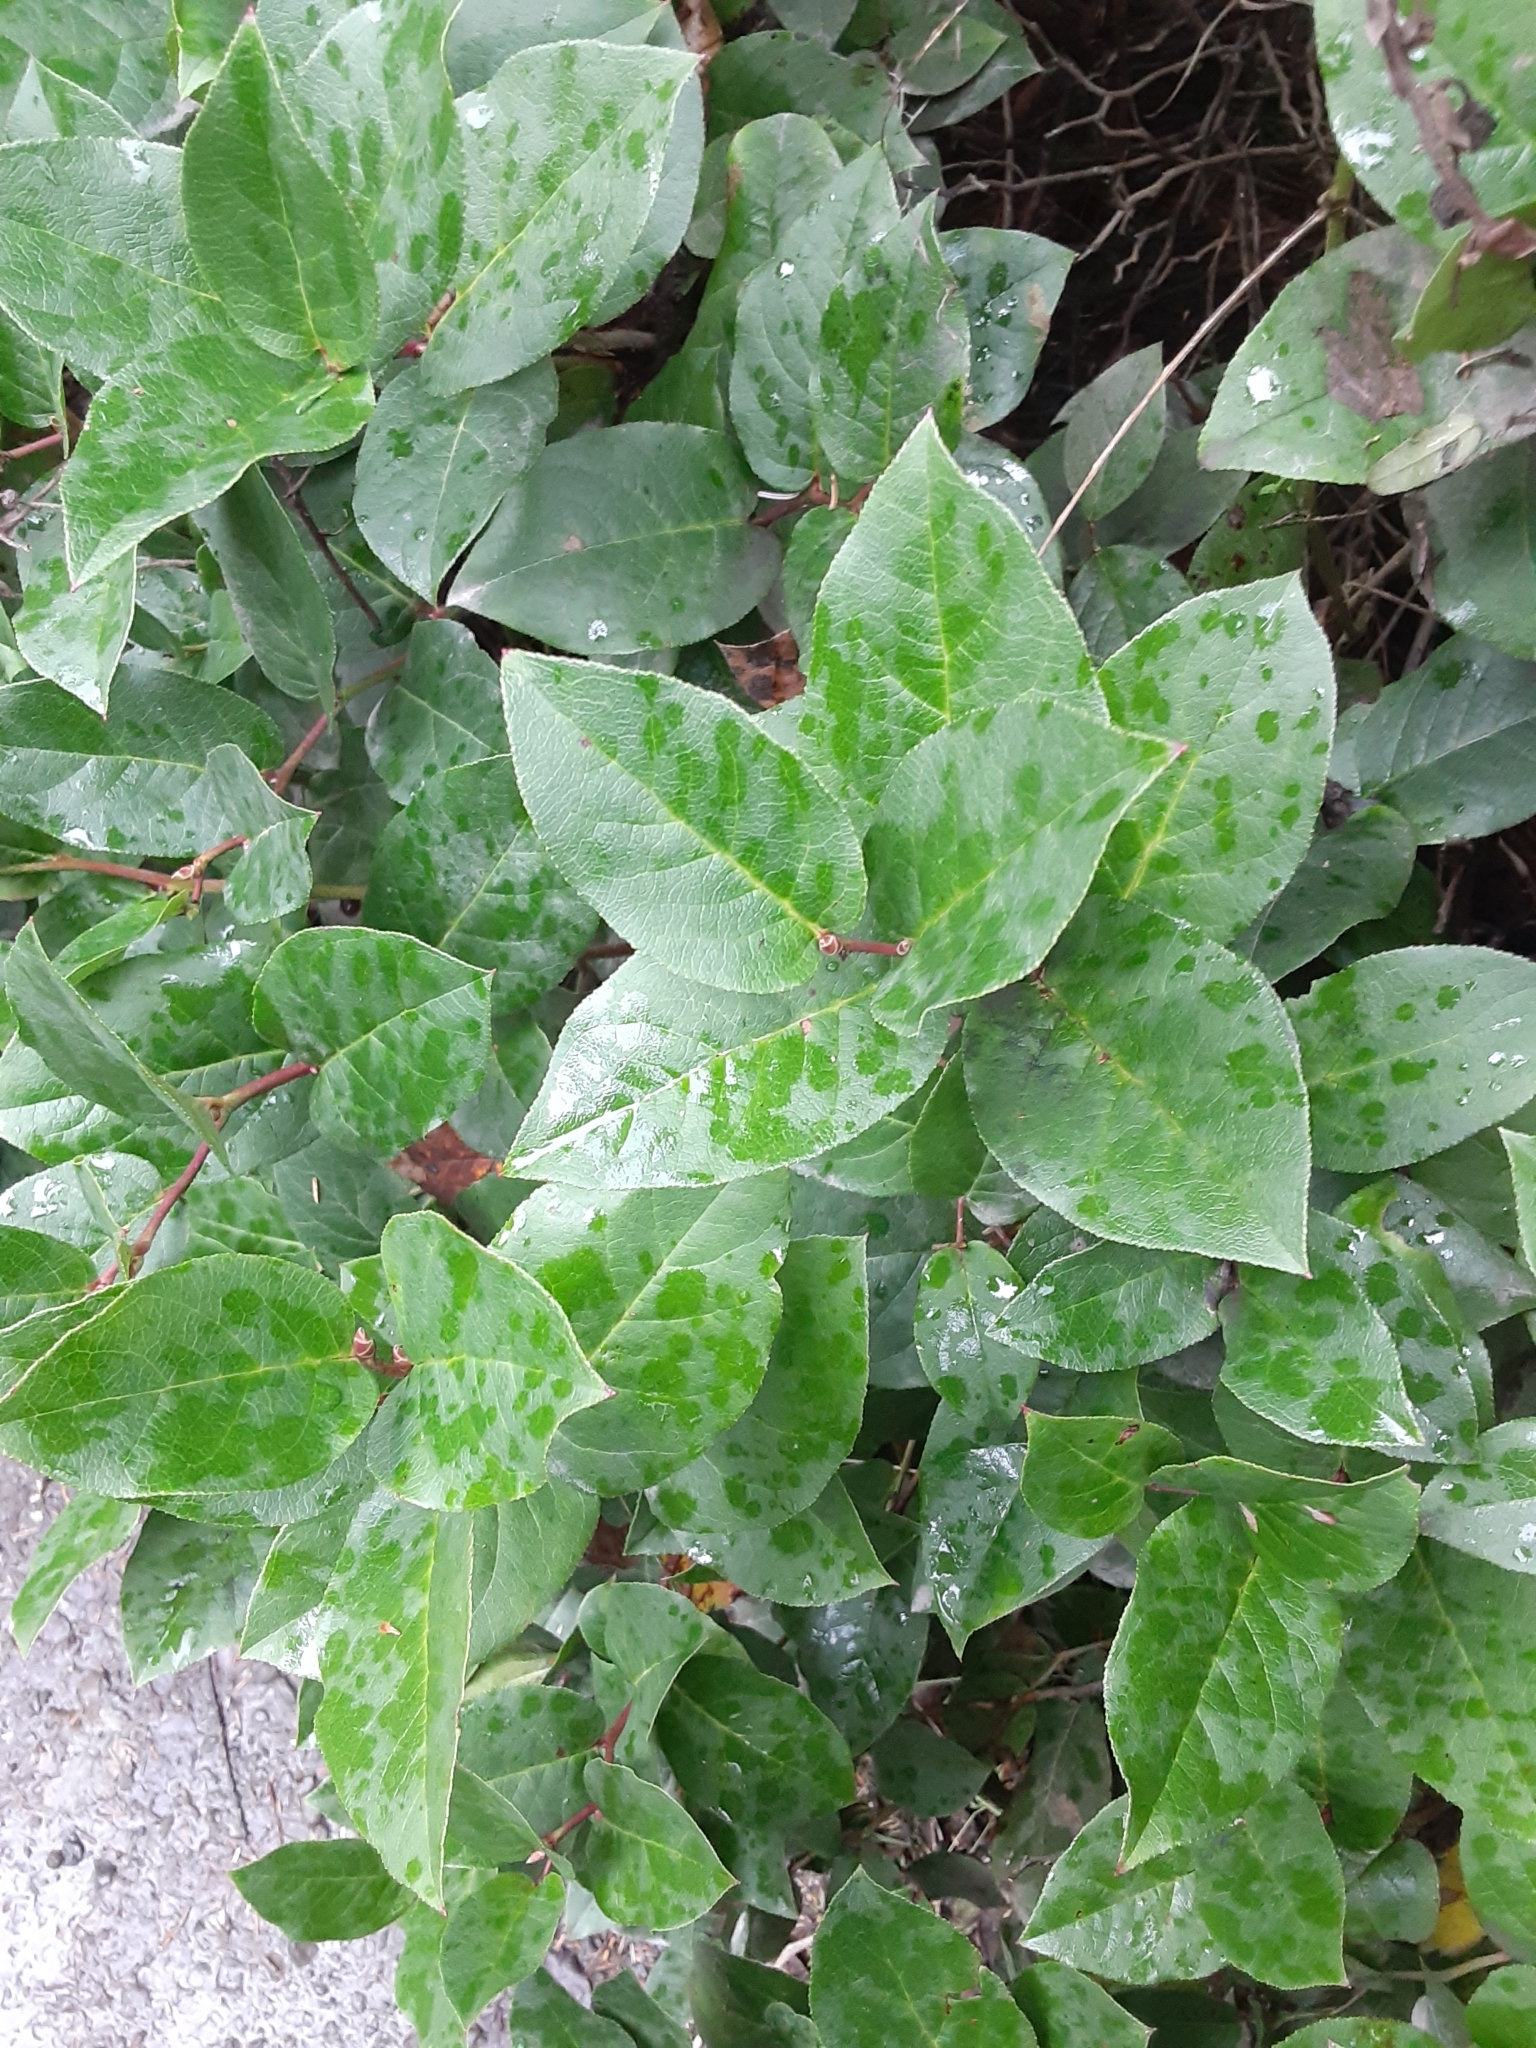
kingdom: Plantae
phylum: Tracheophyta
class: Magnoliopsida
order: Ericales
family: Ericaceae
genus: Gaultheria
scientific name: Gaultheria shallon
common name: Shallon
